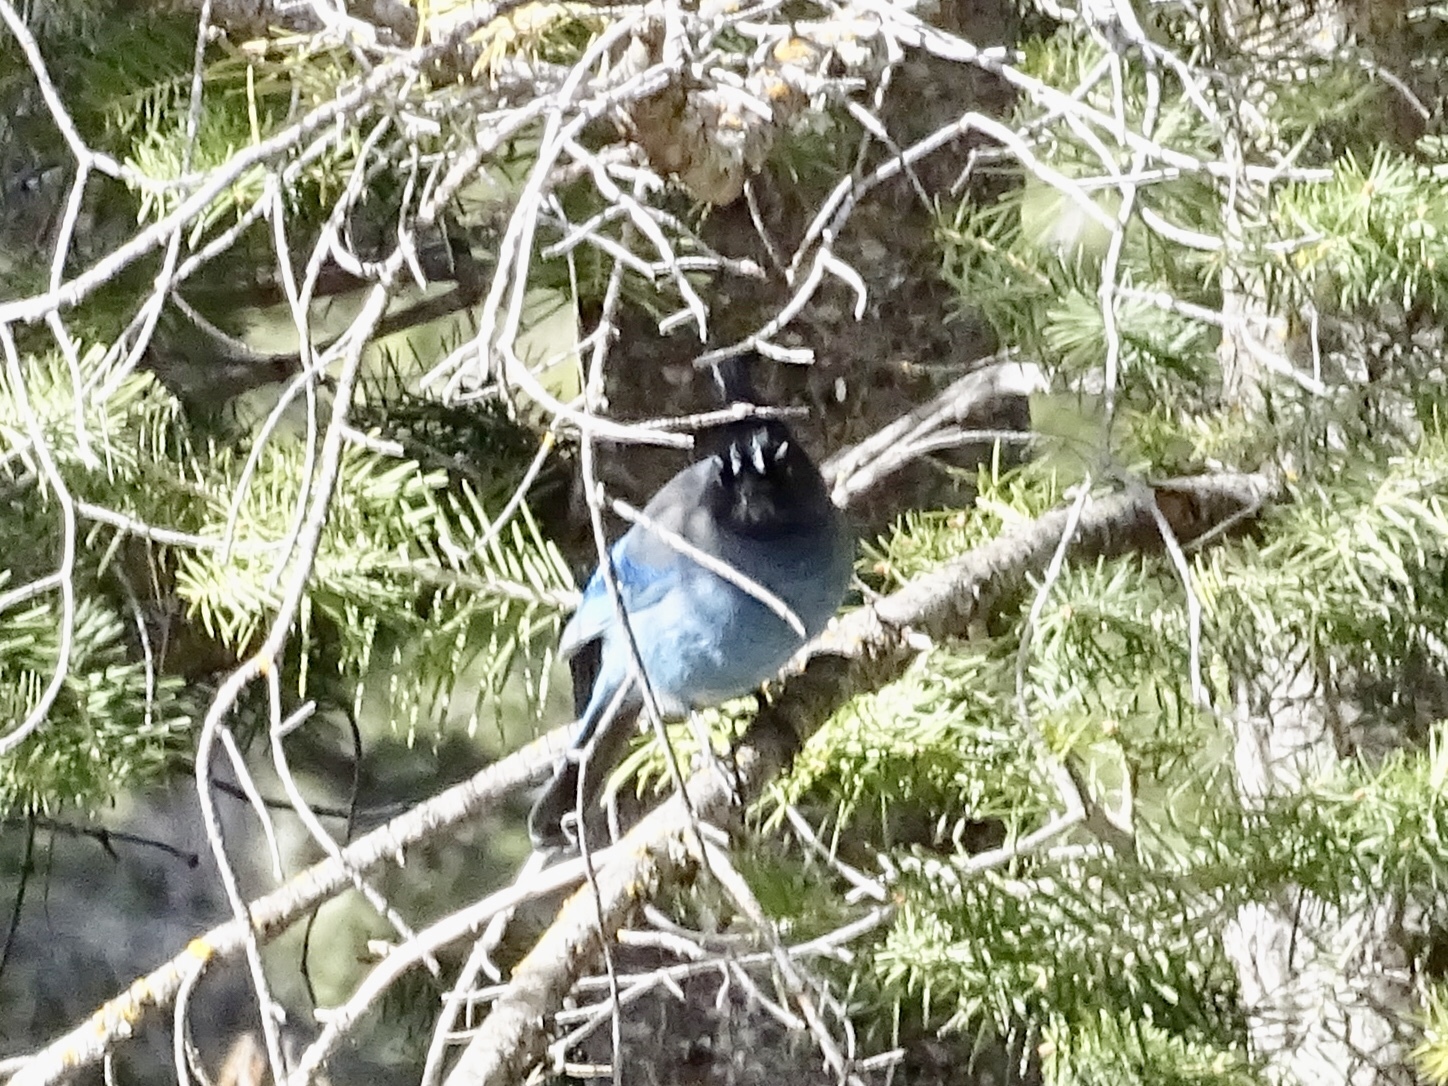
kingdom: Animalia
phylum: Chordata
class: Aves
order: Passeriformes
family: Corvidae
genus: Cyanocitta
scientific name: Cyanocitta stelleri
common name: Steller's jay
